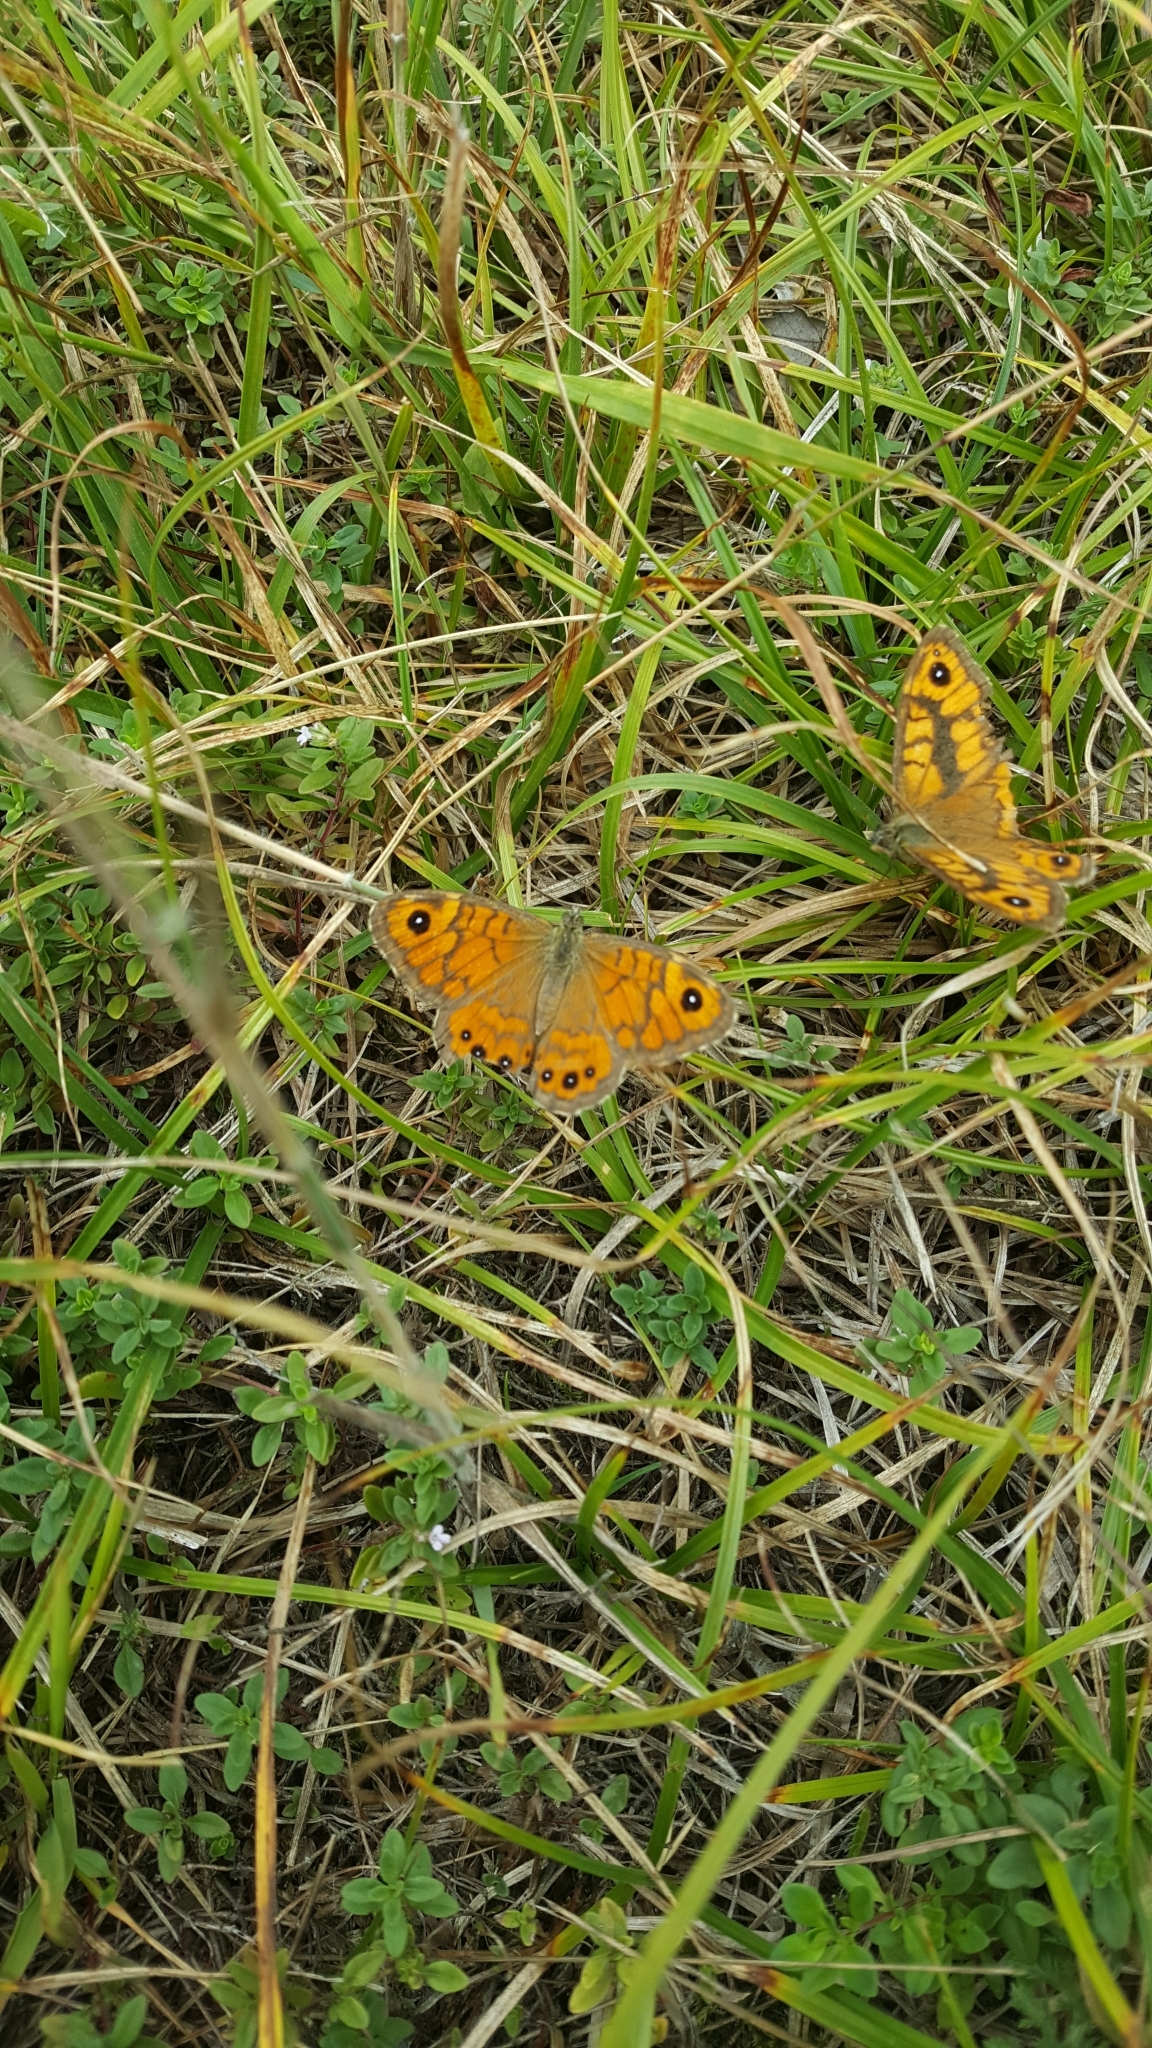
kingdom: Animalia
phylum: Arthropoda
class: Insecta
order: Lepidoptera
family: Nymphalidae
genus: Pararge
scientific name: Pararge Lasiommata megera
